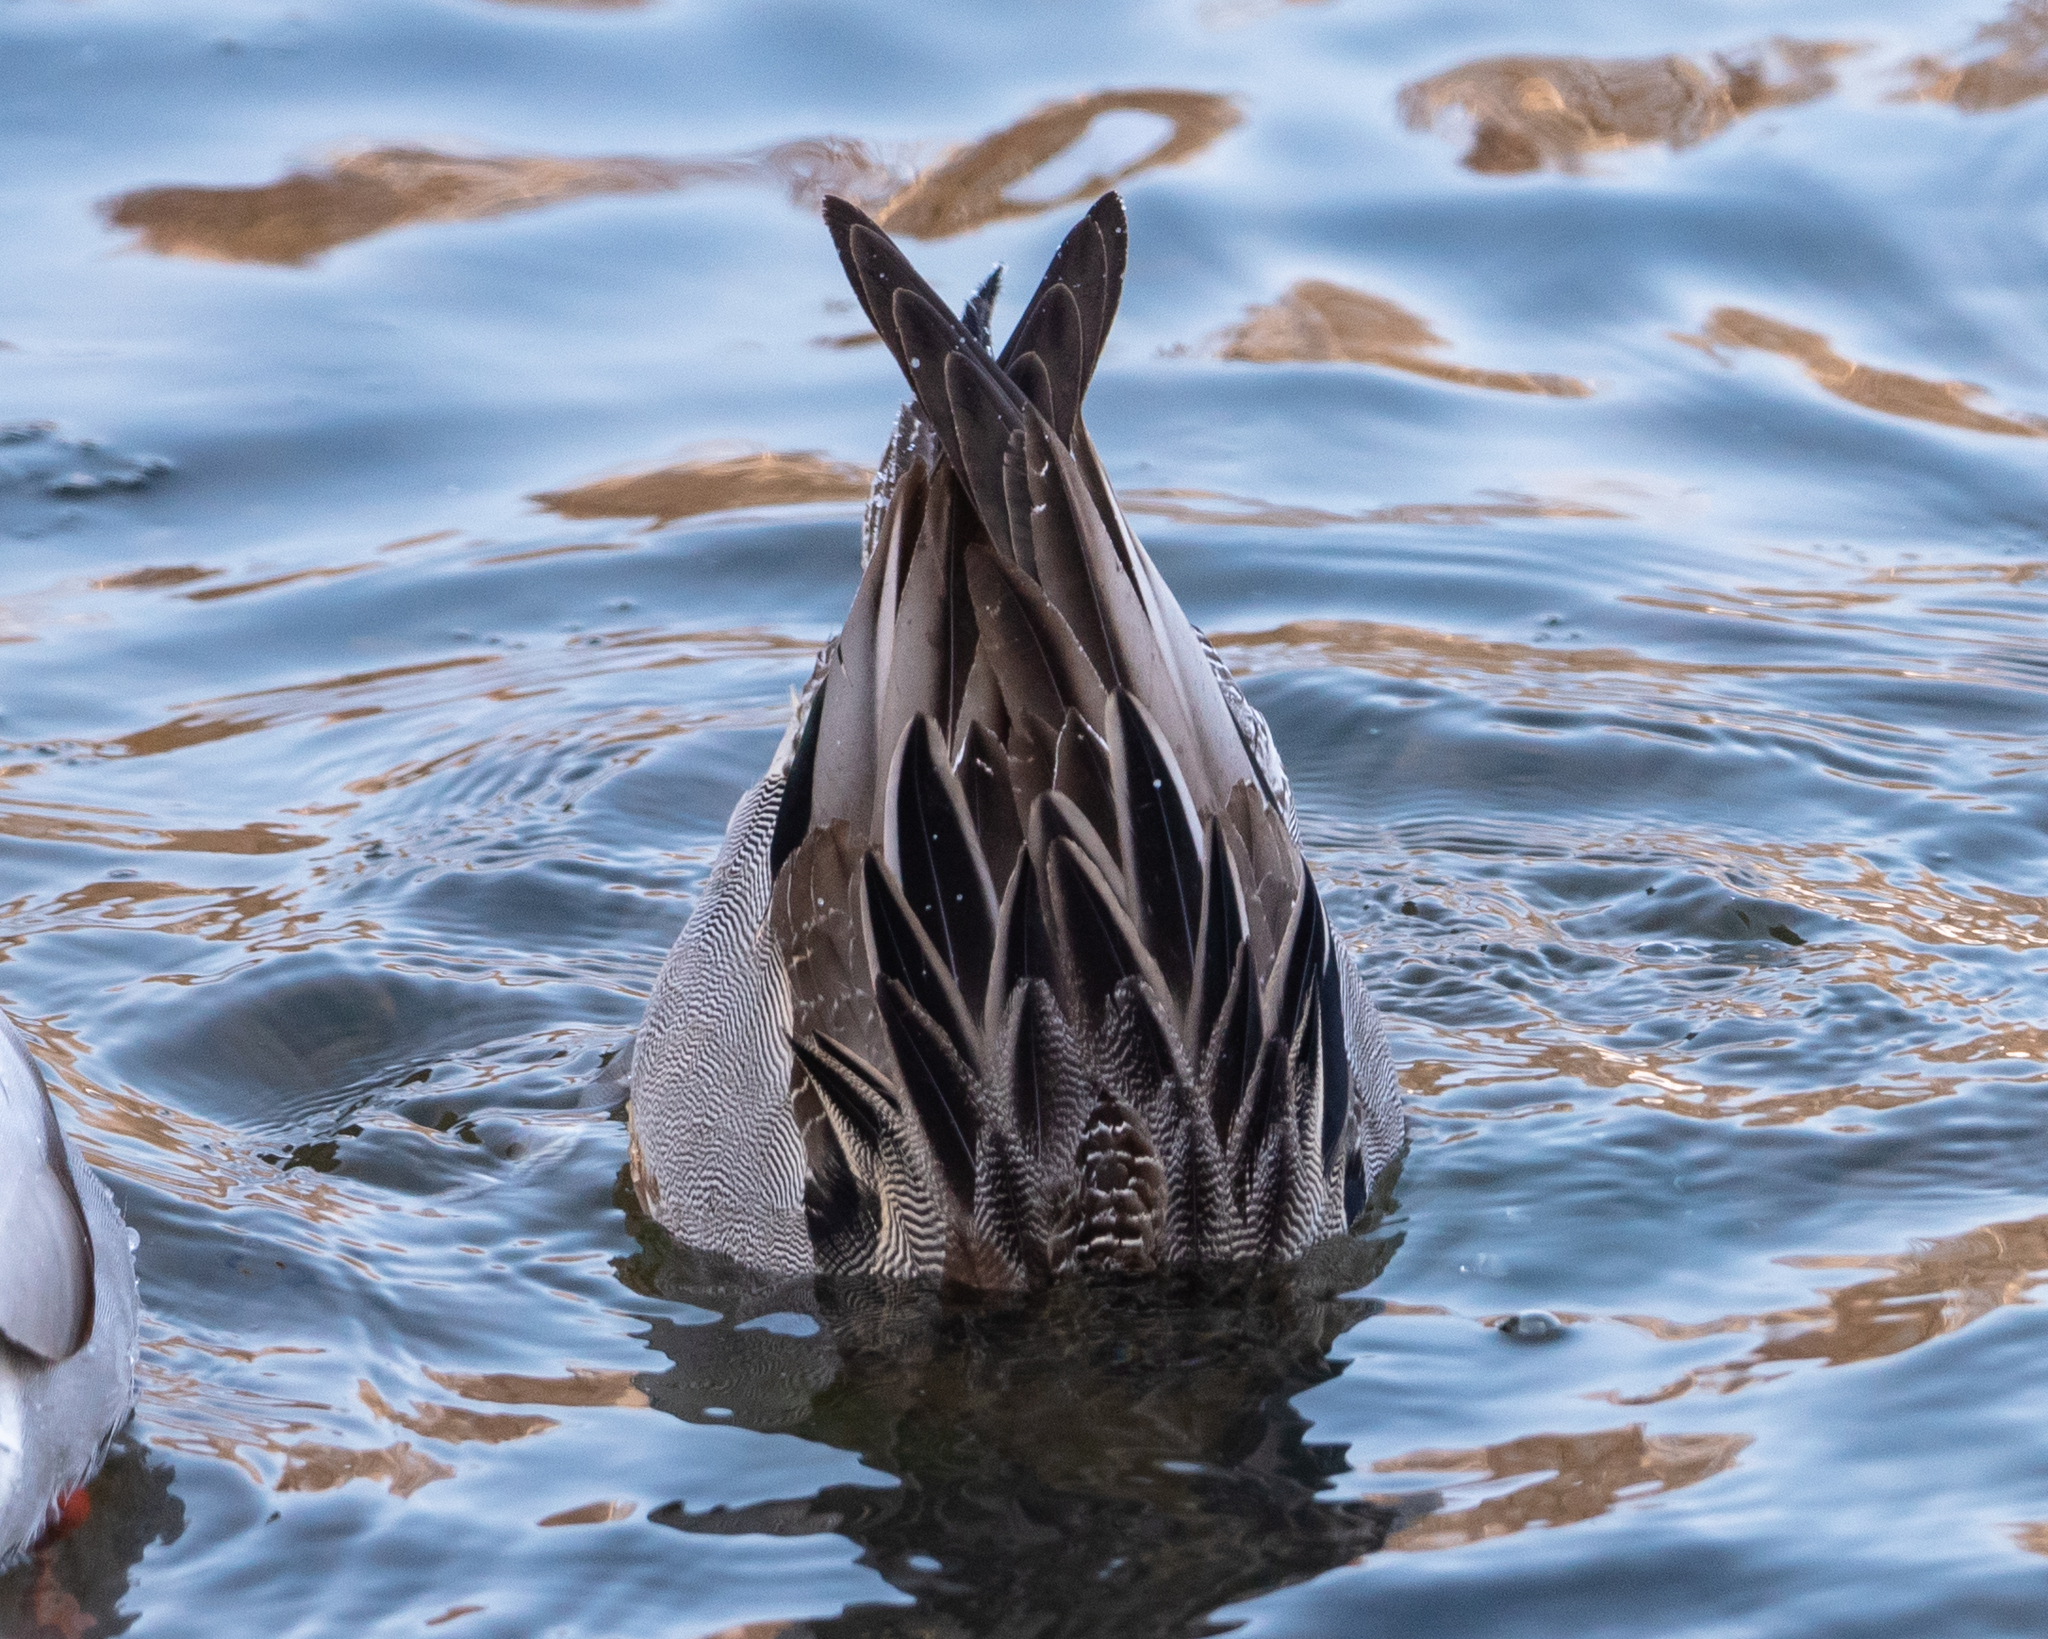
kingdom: Animalia
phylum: Chordata
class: Aves
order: Anseriformes
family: Anatidae
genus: Anas
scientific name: Anas acuta
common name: Northern pintail
